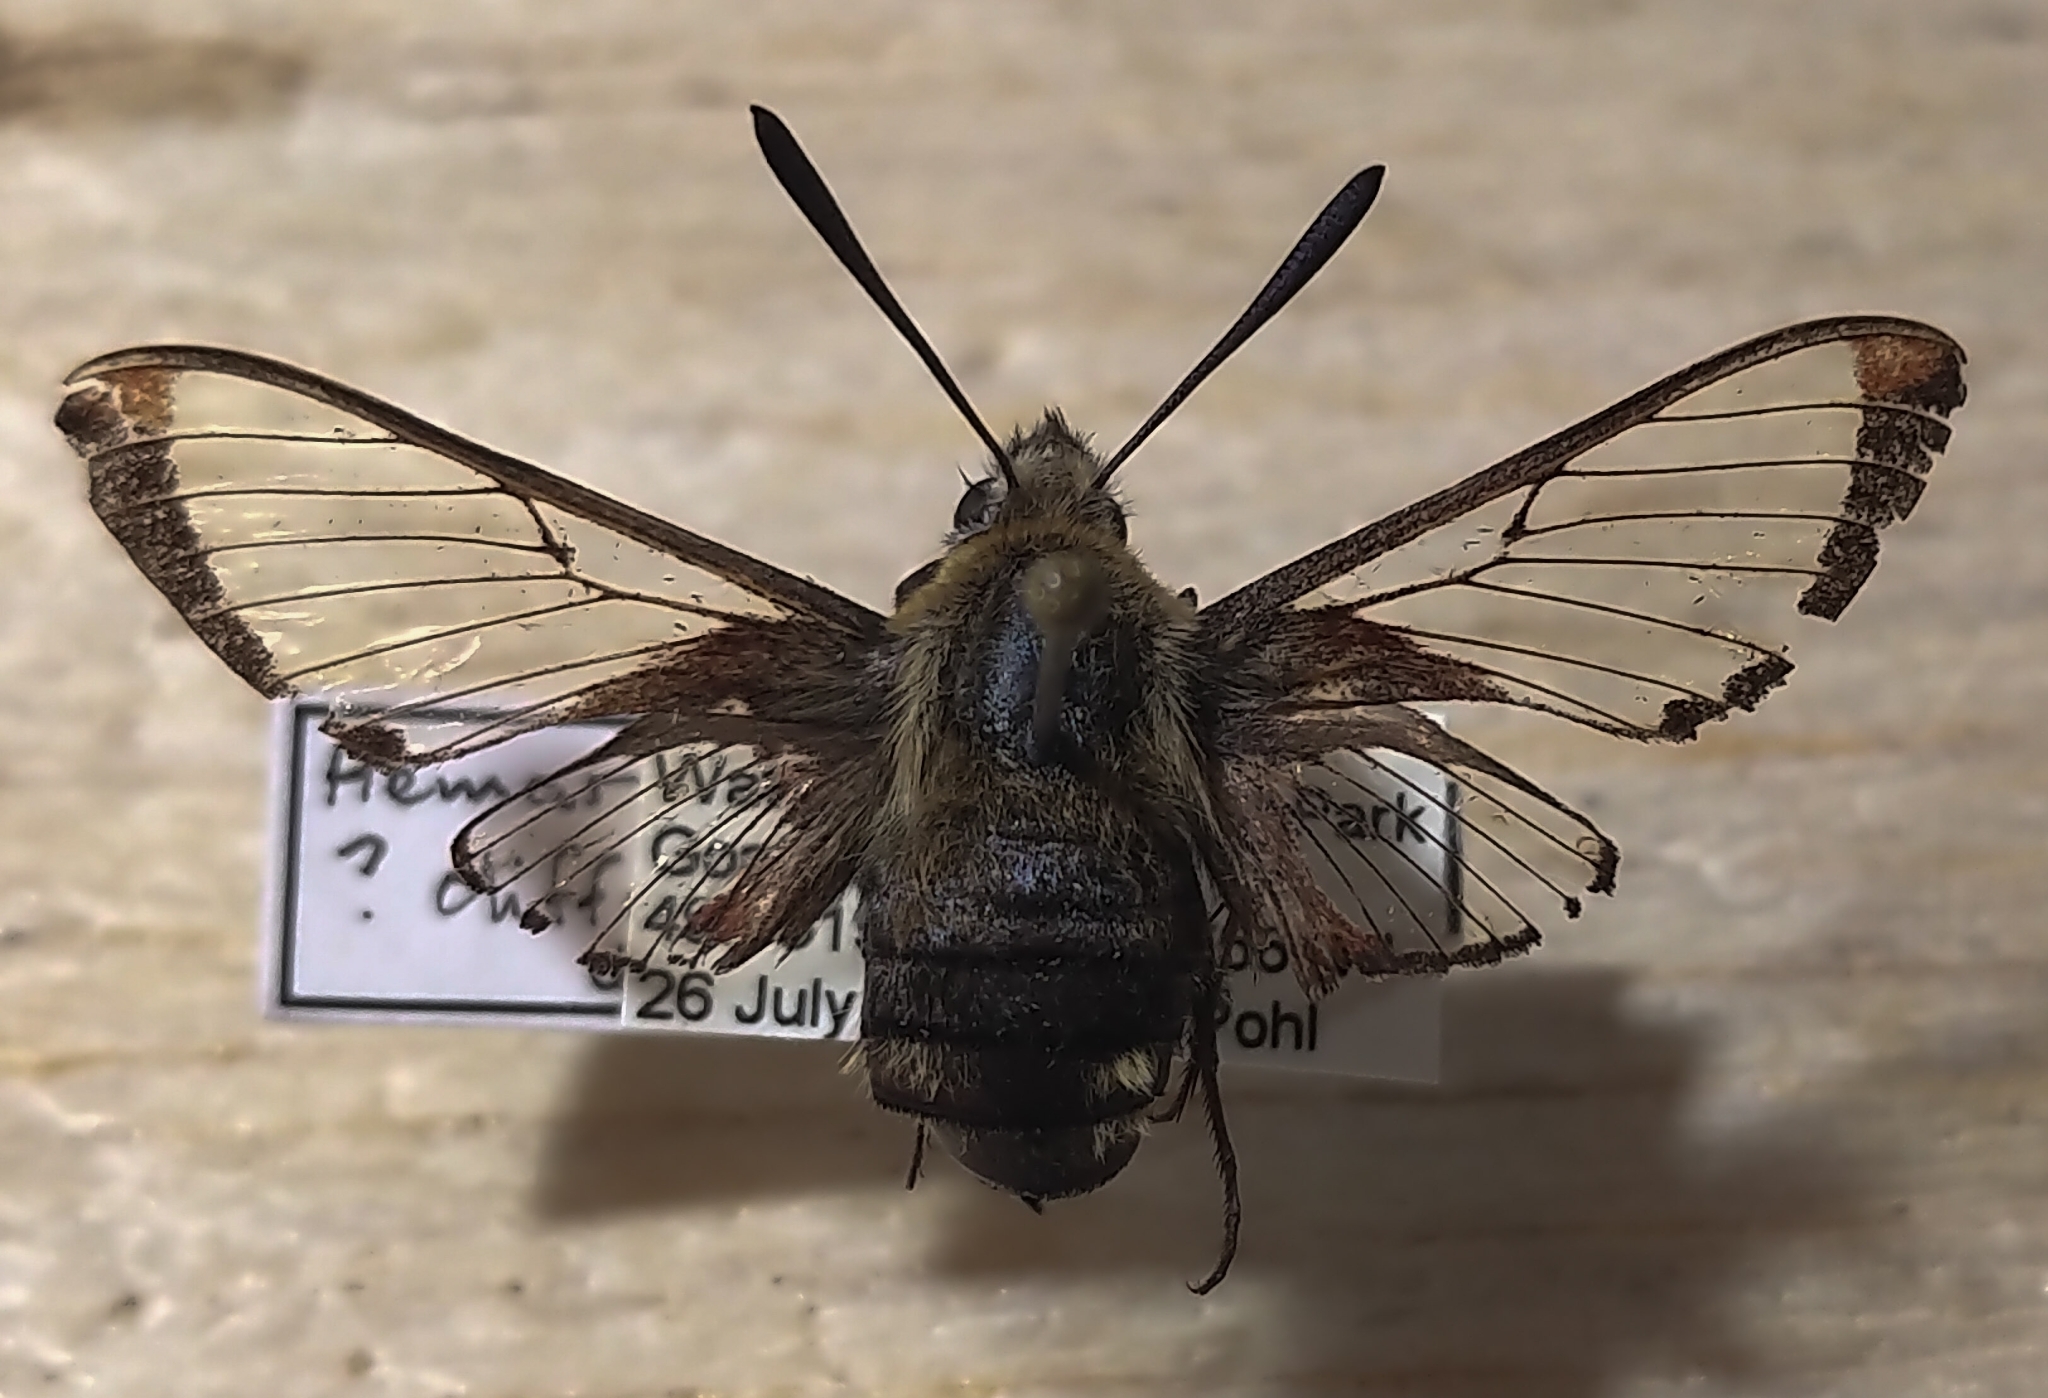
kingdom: Animalia
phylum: Arthropoda
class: Insecta
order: Lepidoptera
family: Sphingidae
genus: Hemaris
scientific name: Hemaris thetis
